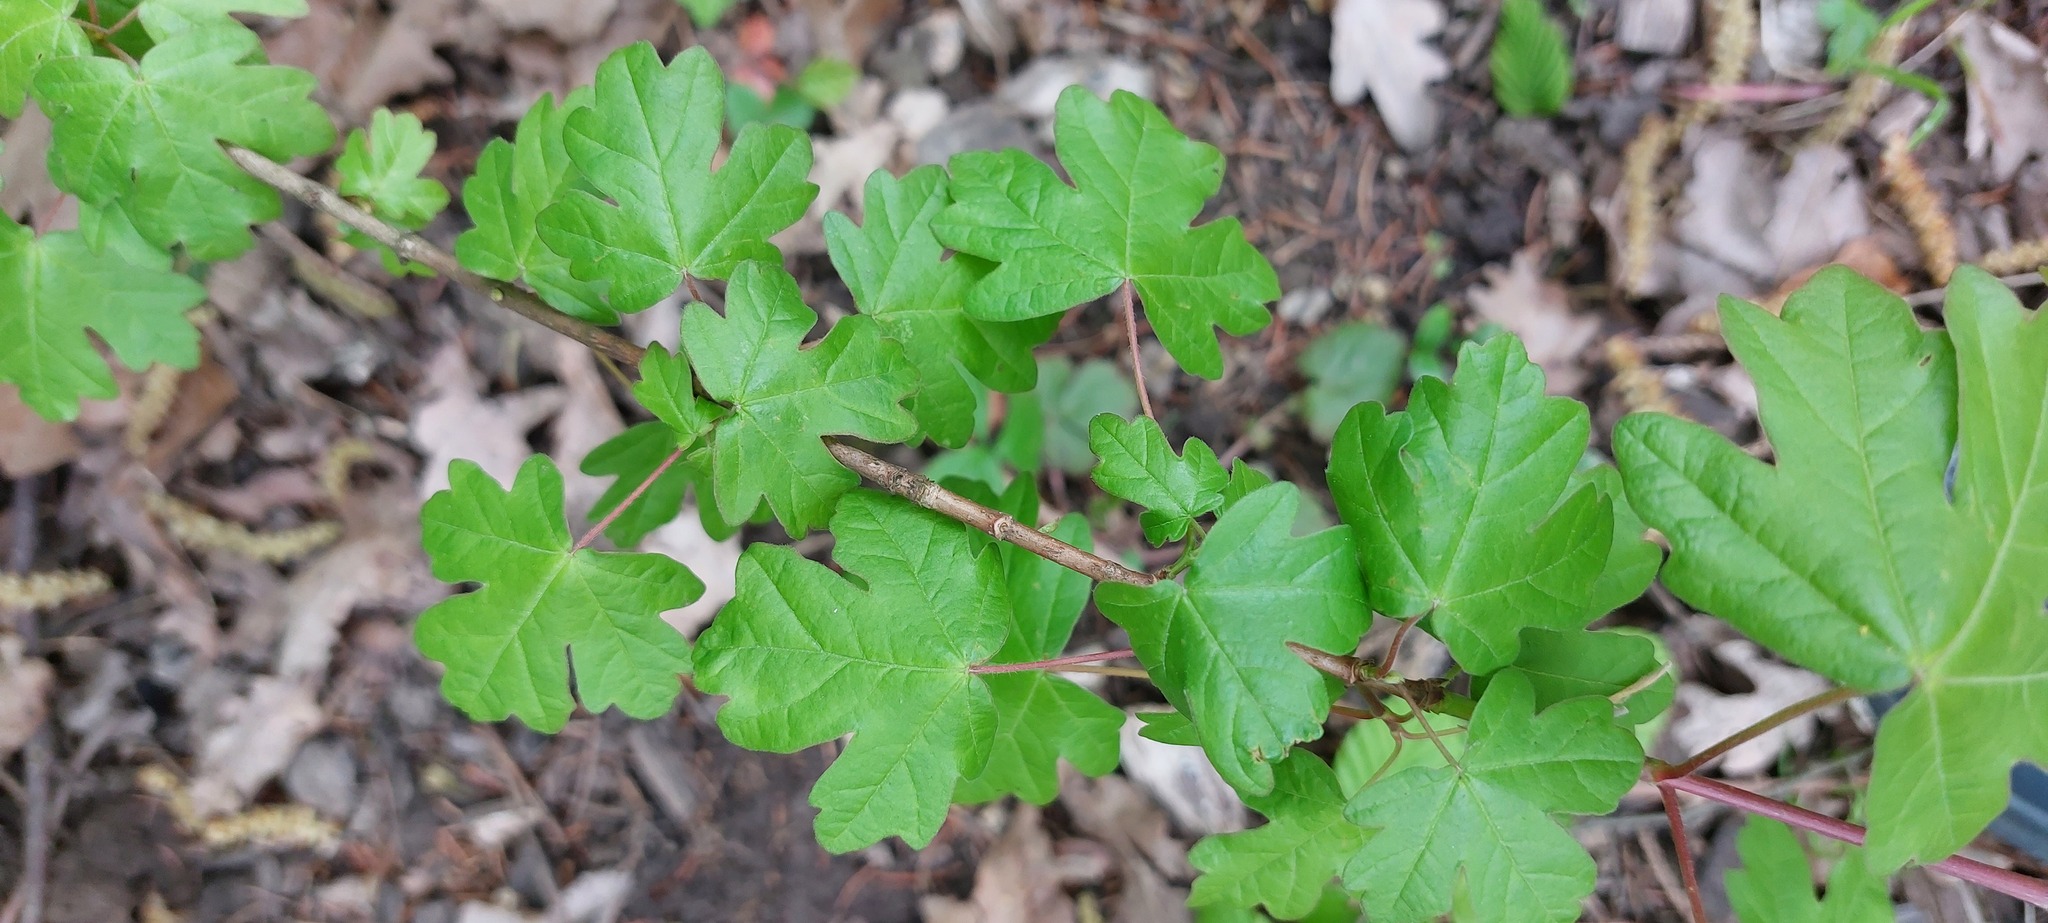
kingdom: Plantae
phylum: Tracheophyta
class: Magnoliopsida
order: Sapindales
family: Sapindaceae
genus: Acer
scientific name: Acer campestre
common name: Field maple
